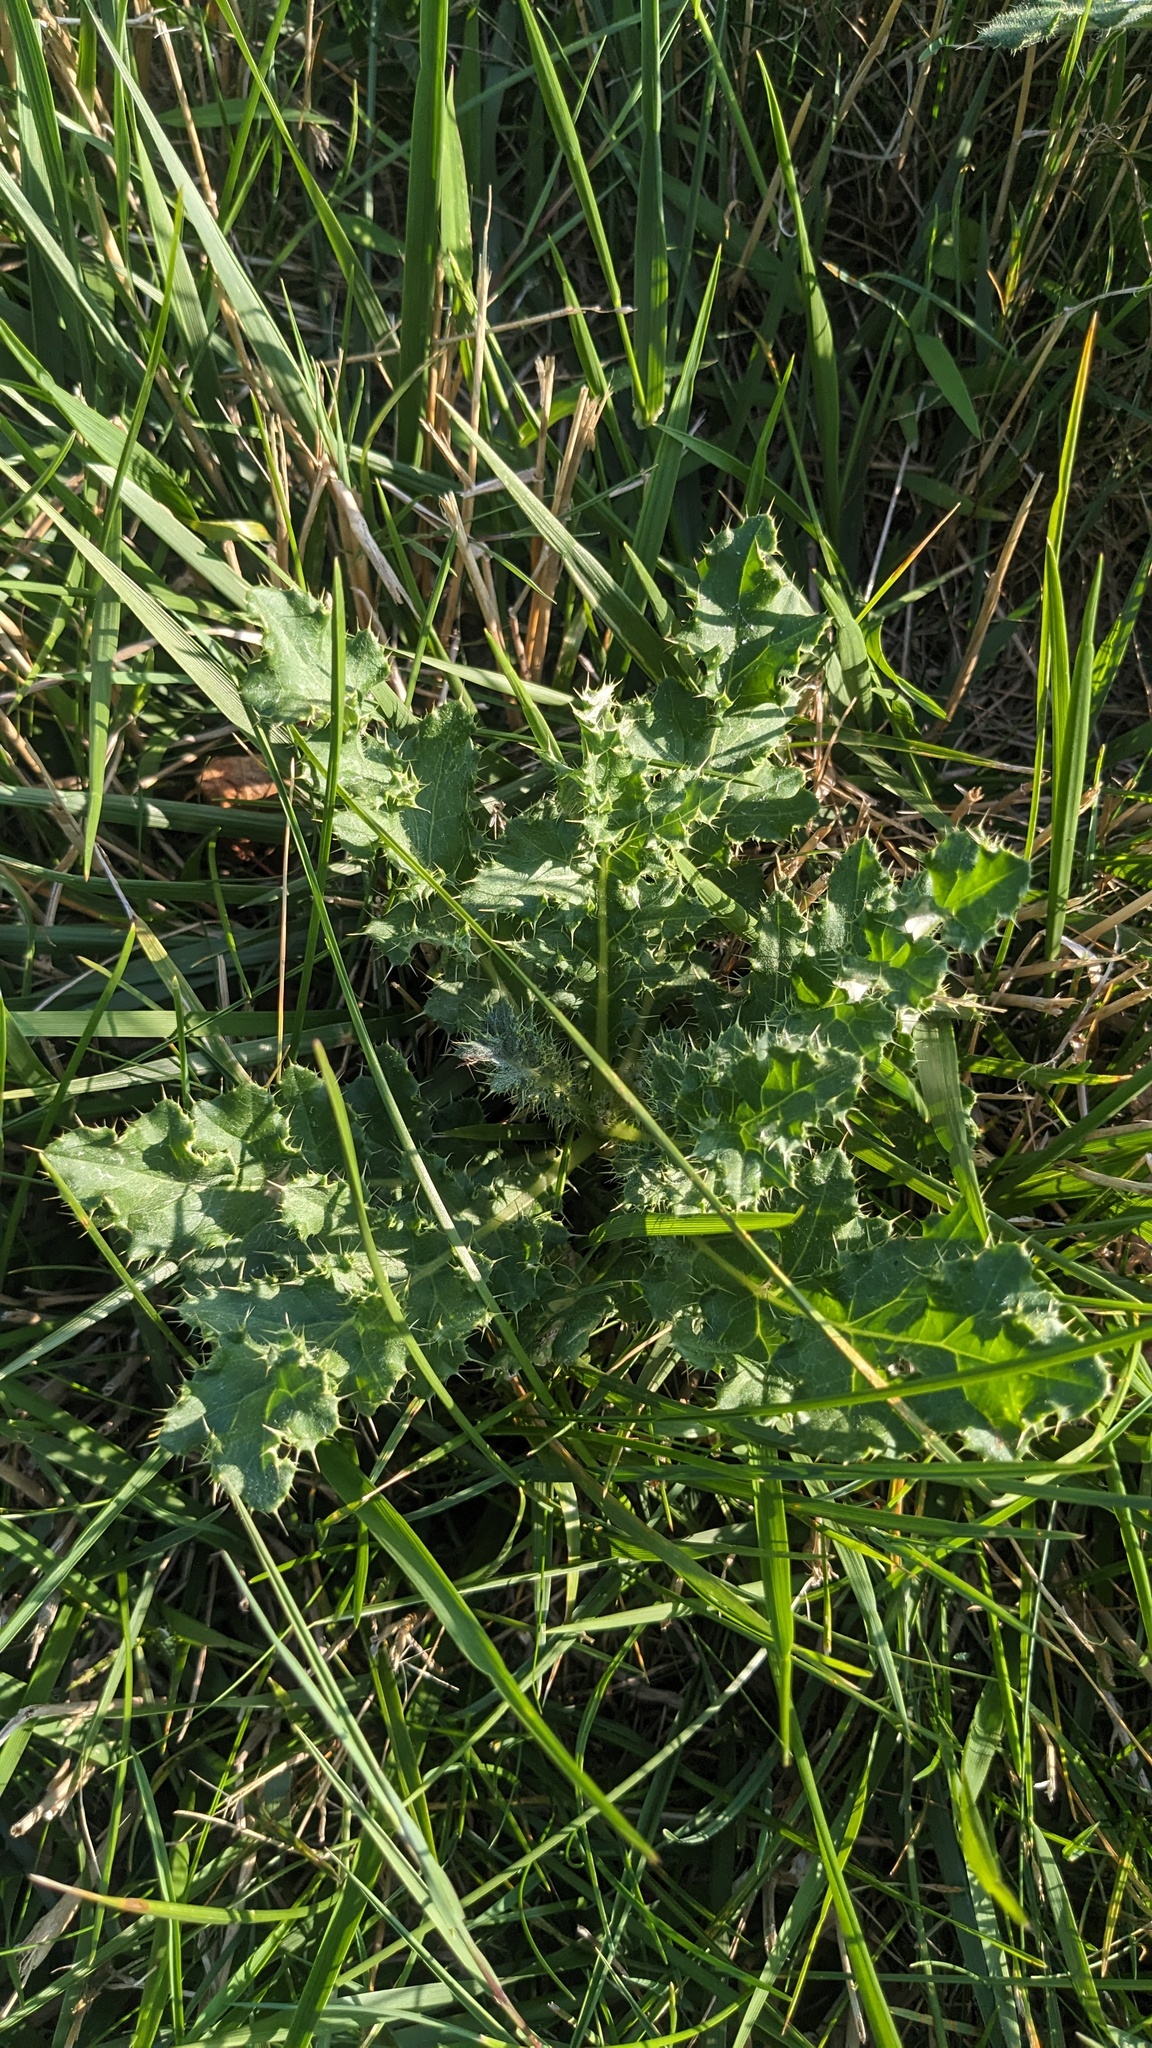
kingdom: Plantae
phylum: Tracheophyta
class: Magnoliopsida
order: Asterales
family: Asteraceae
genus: Cirsium
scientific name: Cirsium arvense
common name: Creeping thistle
